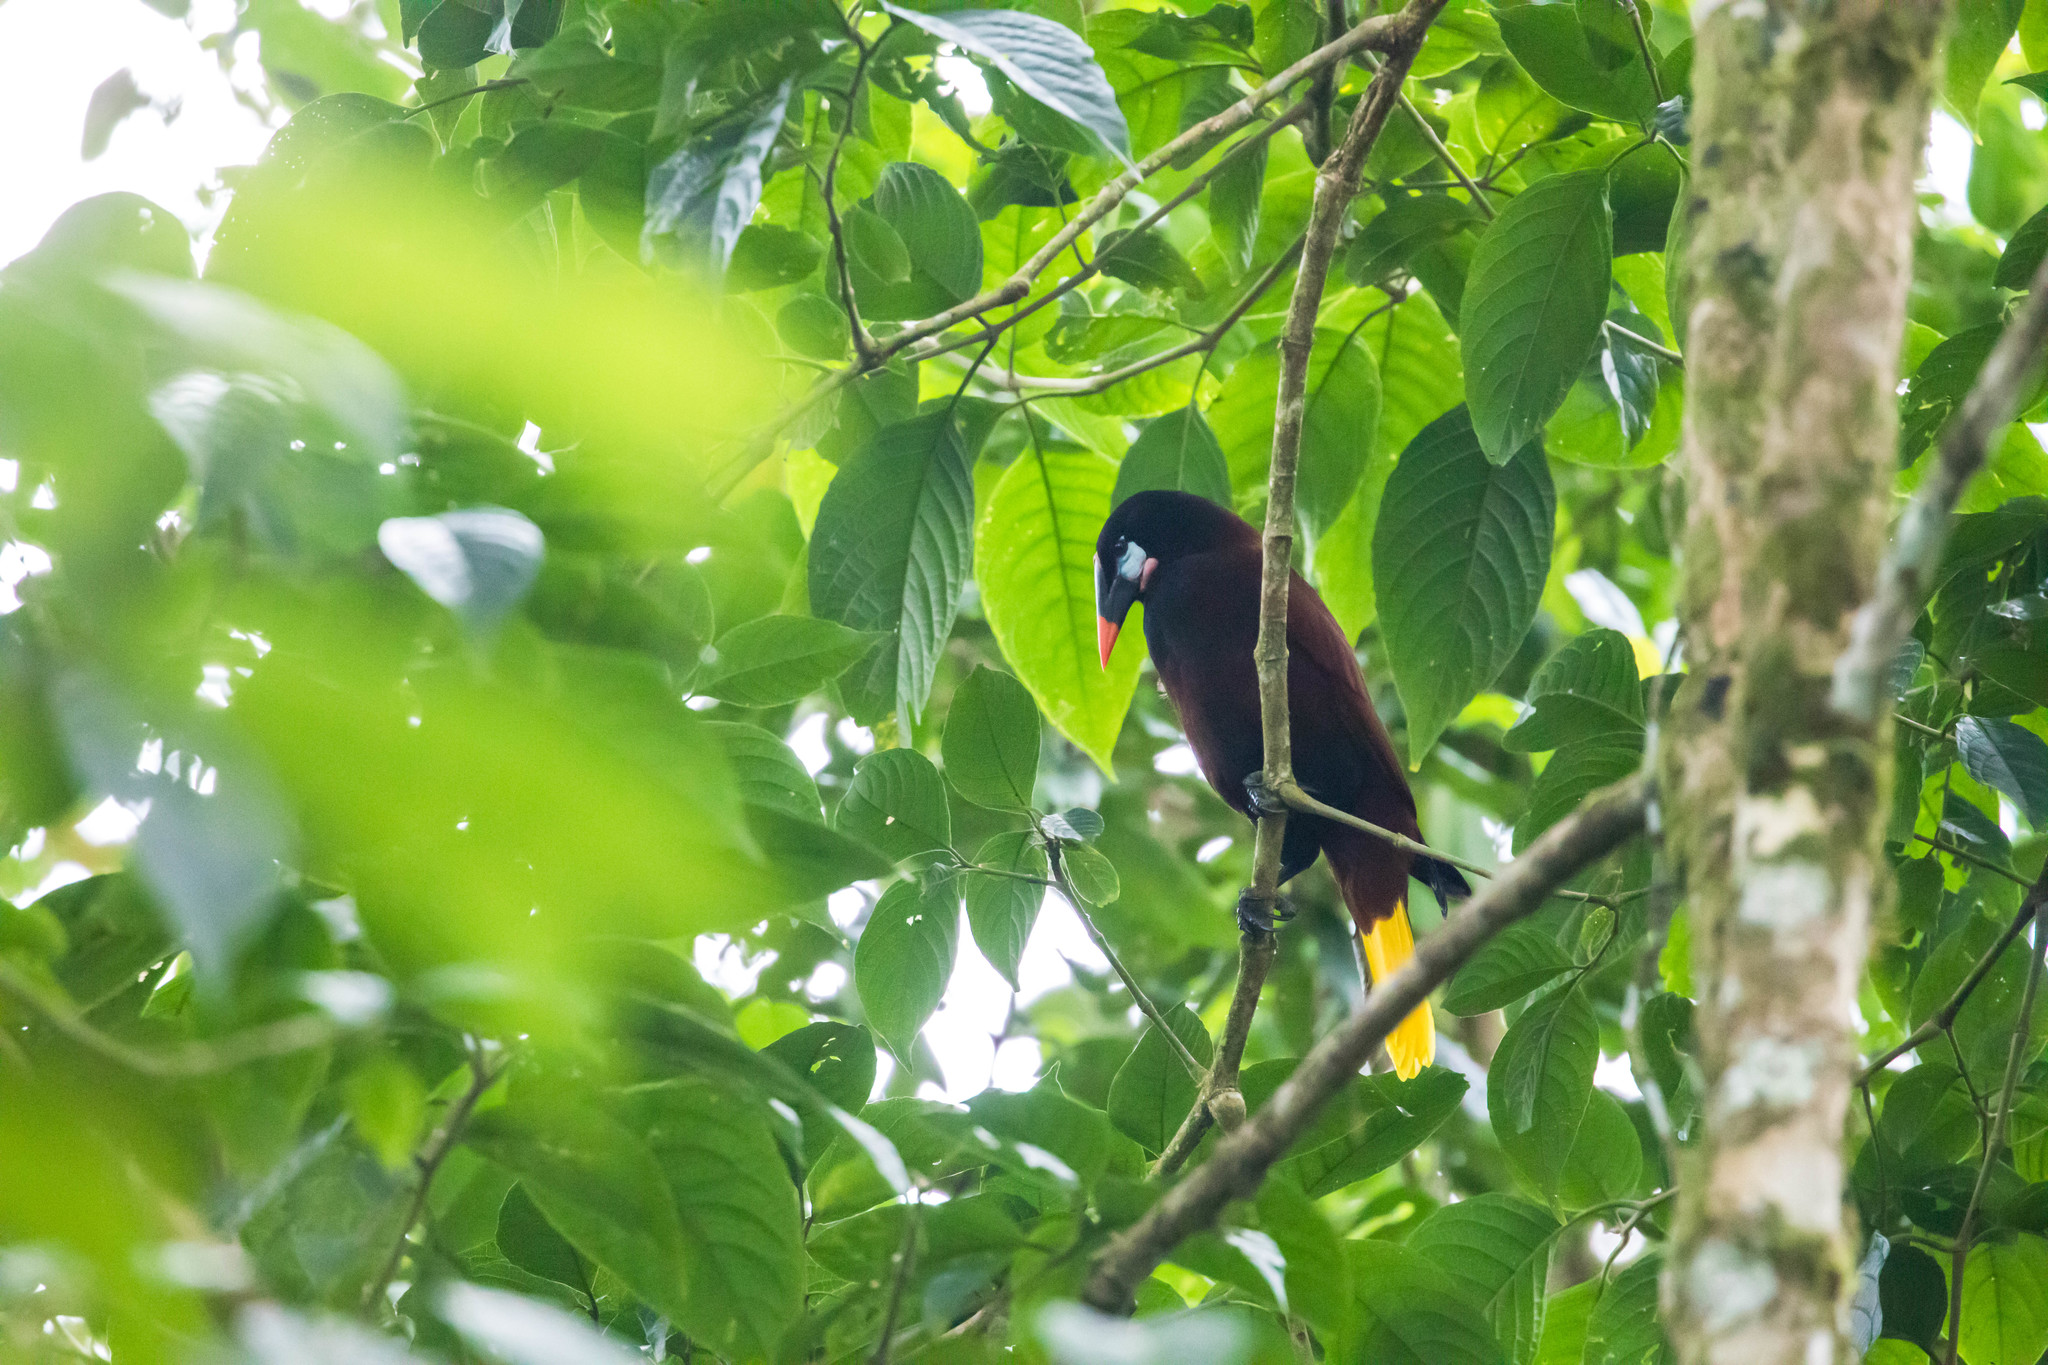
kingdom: Animalia
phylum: Chordata
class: Aves
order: Passeriformes
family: Icteridae
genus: Psarocolius
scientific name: Psarocolius montezuma
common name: Montezuma oropendola
